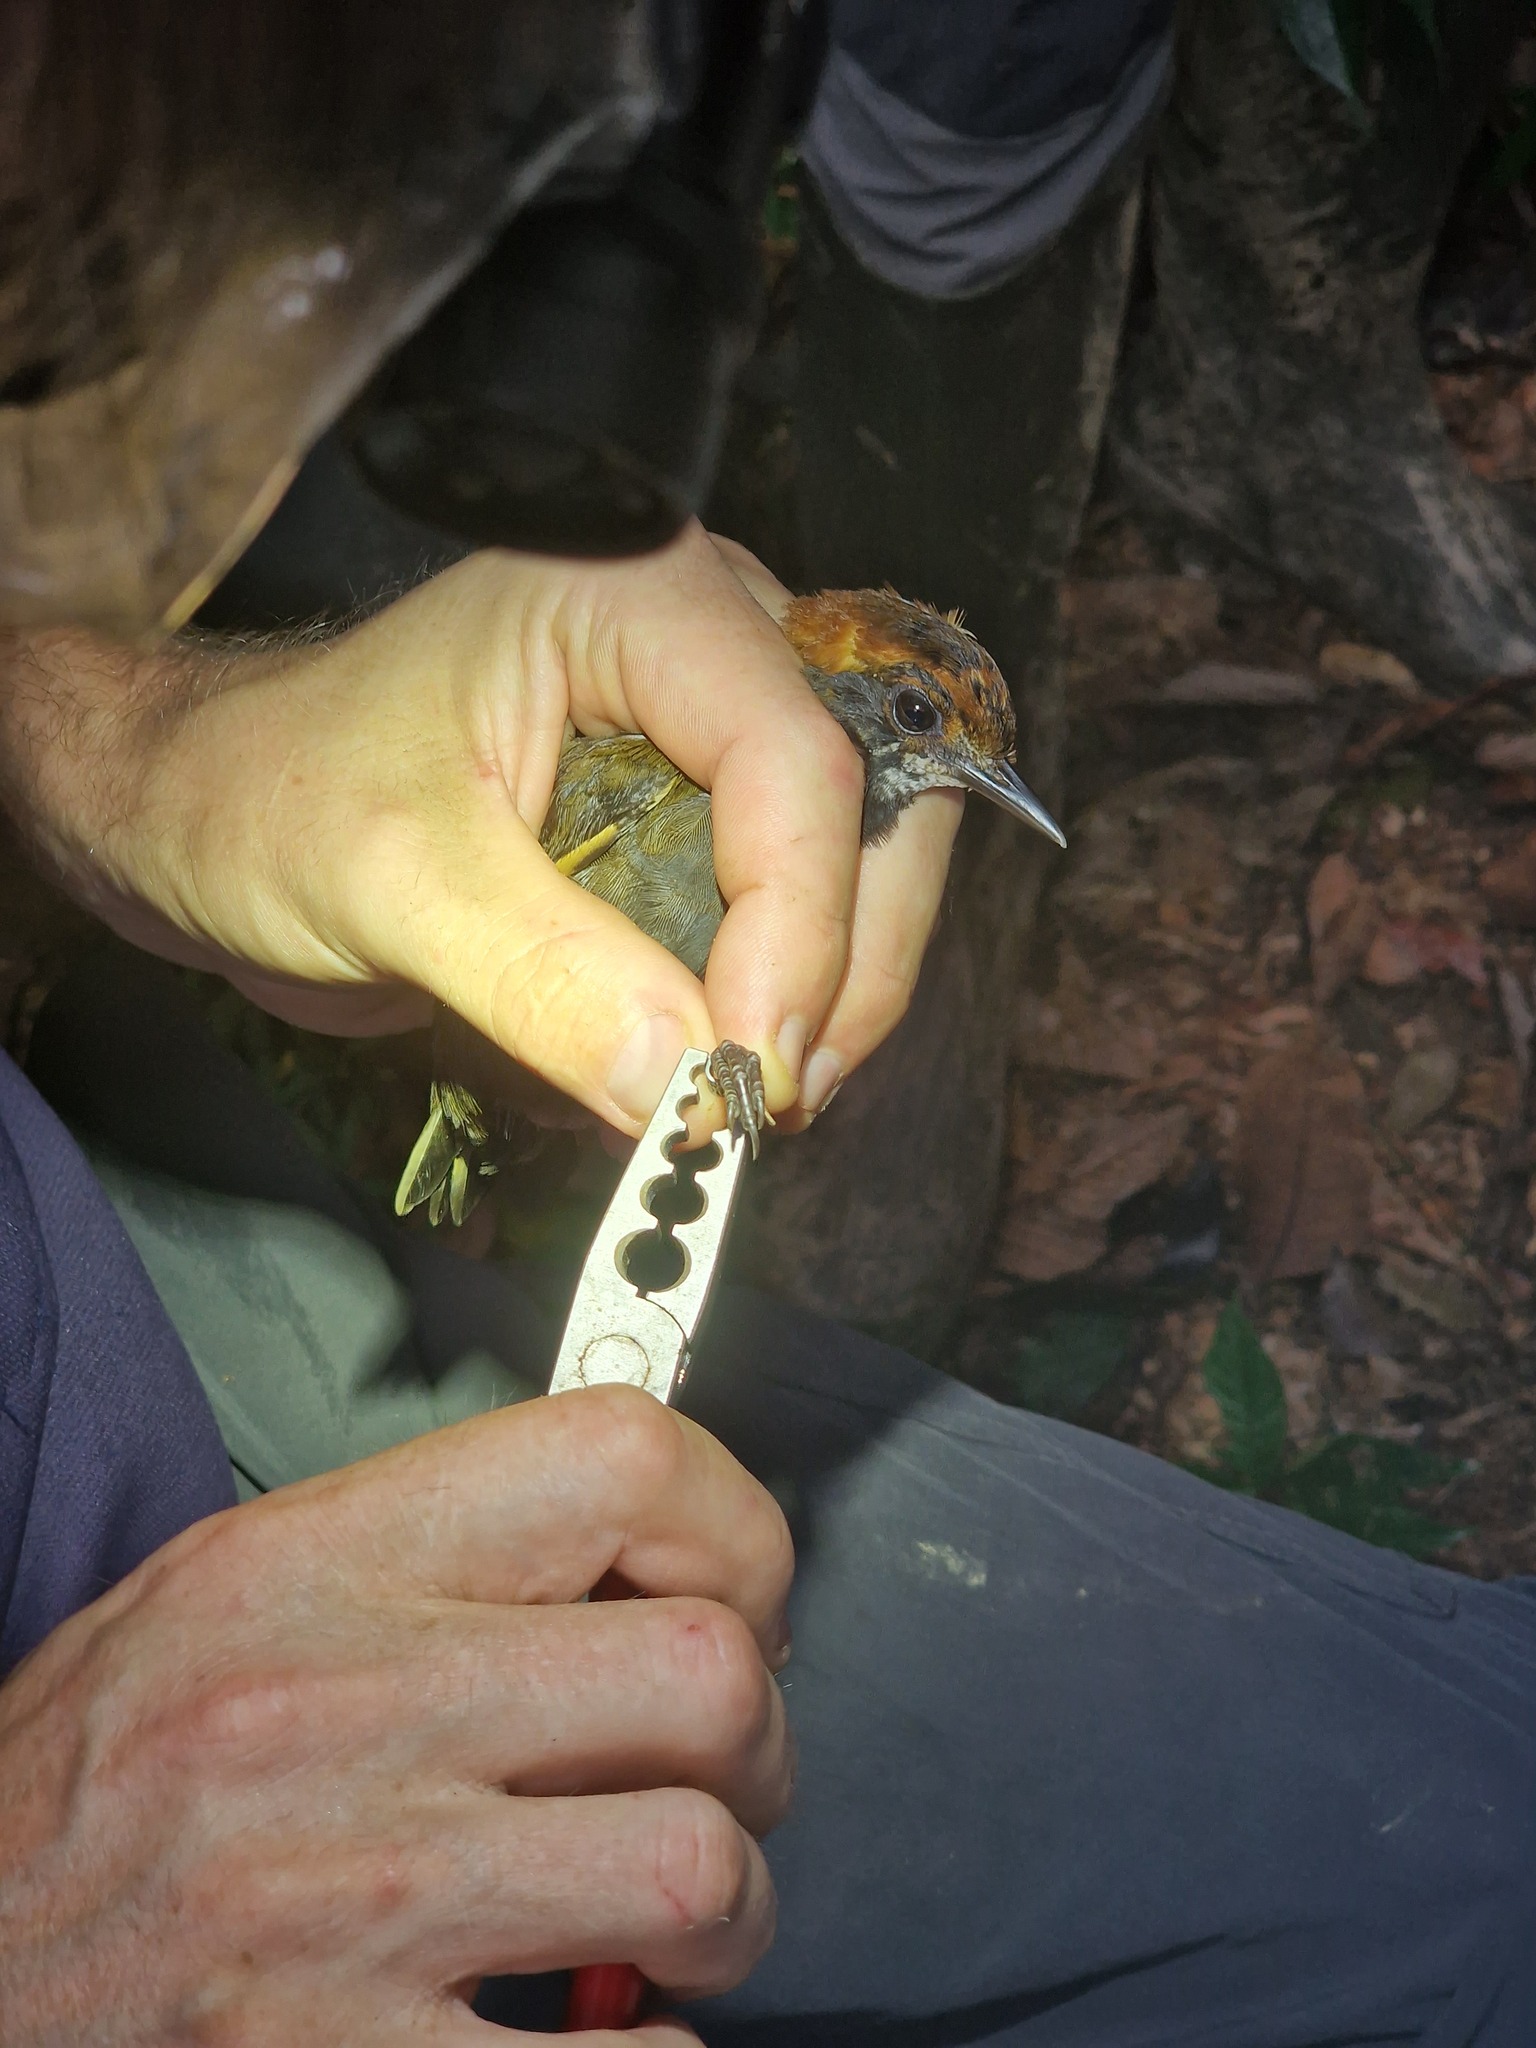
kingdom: Animalia
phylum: Chordata
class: Aves
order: Passeriformes
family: Formicariidae
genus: Formicarius
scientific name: Formicarius colma
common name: Rufous-capped antthrush
